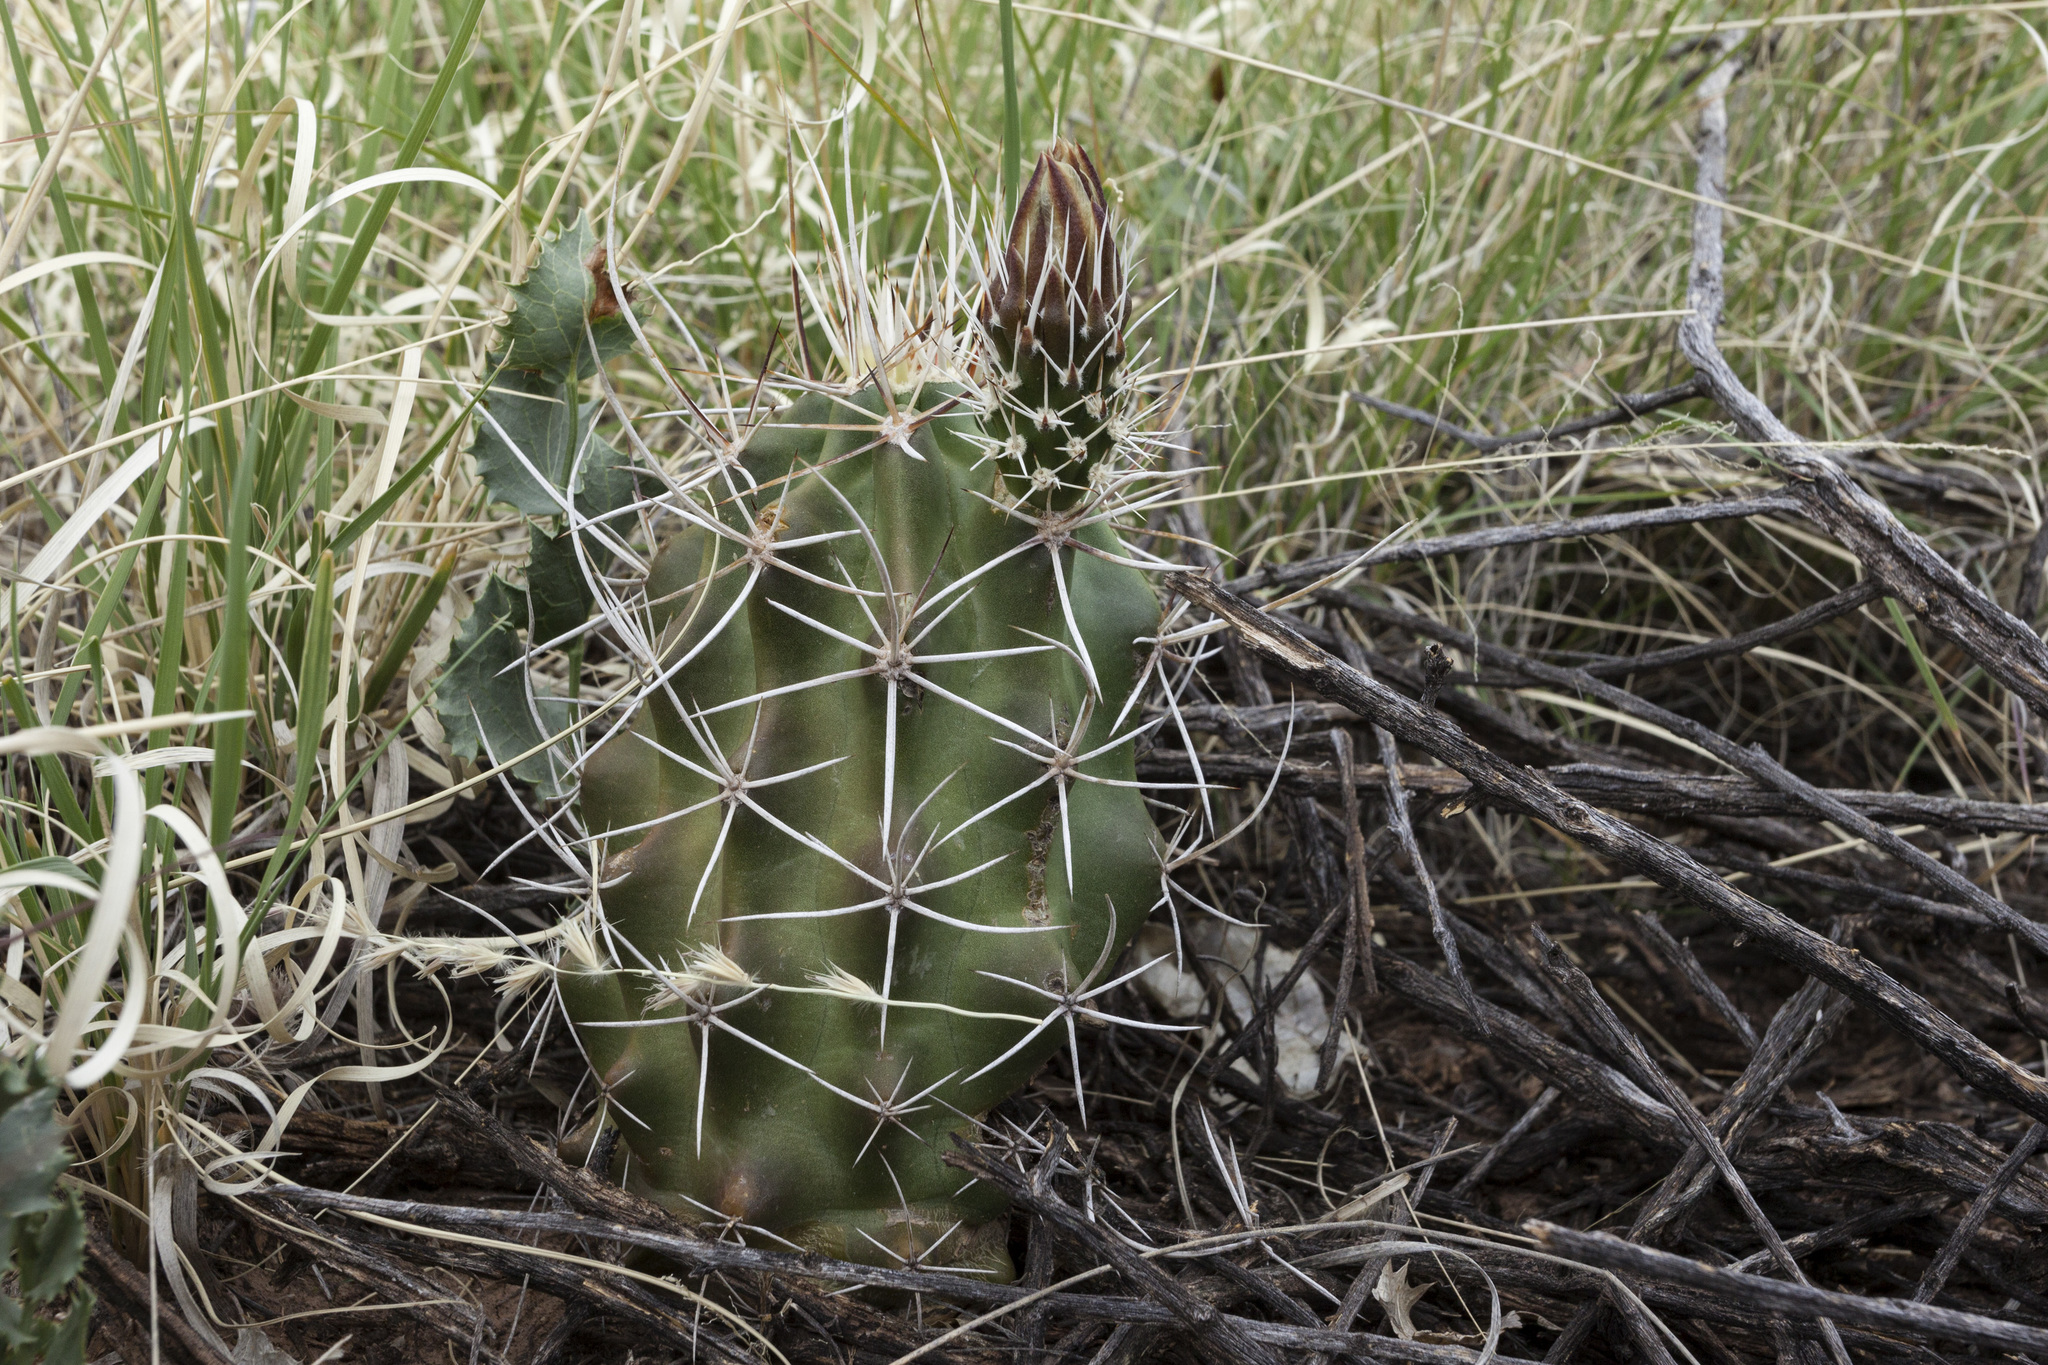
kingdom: Plantae
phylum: Tracheophyta
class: Magnoliopsida
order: Caryophyllales
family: Cactaceae
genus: Echinocereus
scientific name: Echinocereus fendleri
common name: Fendler's hedgehog cactus
